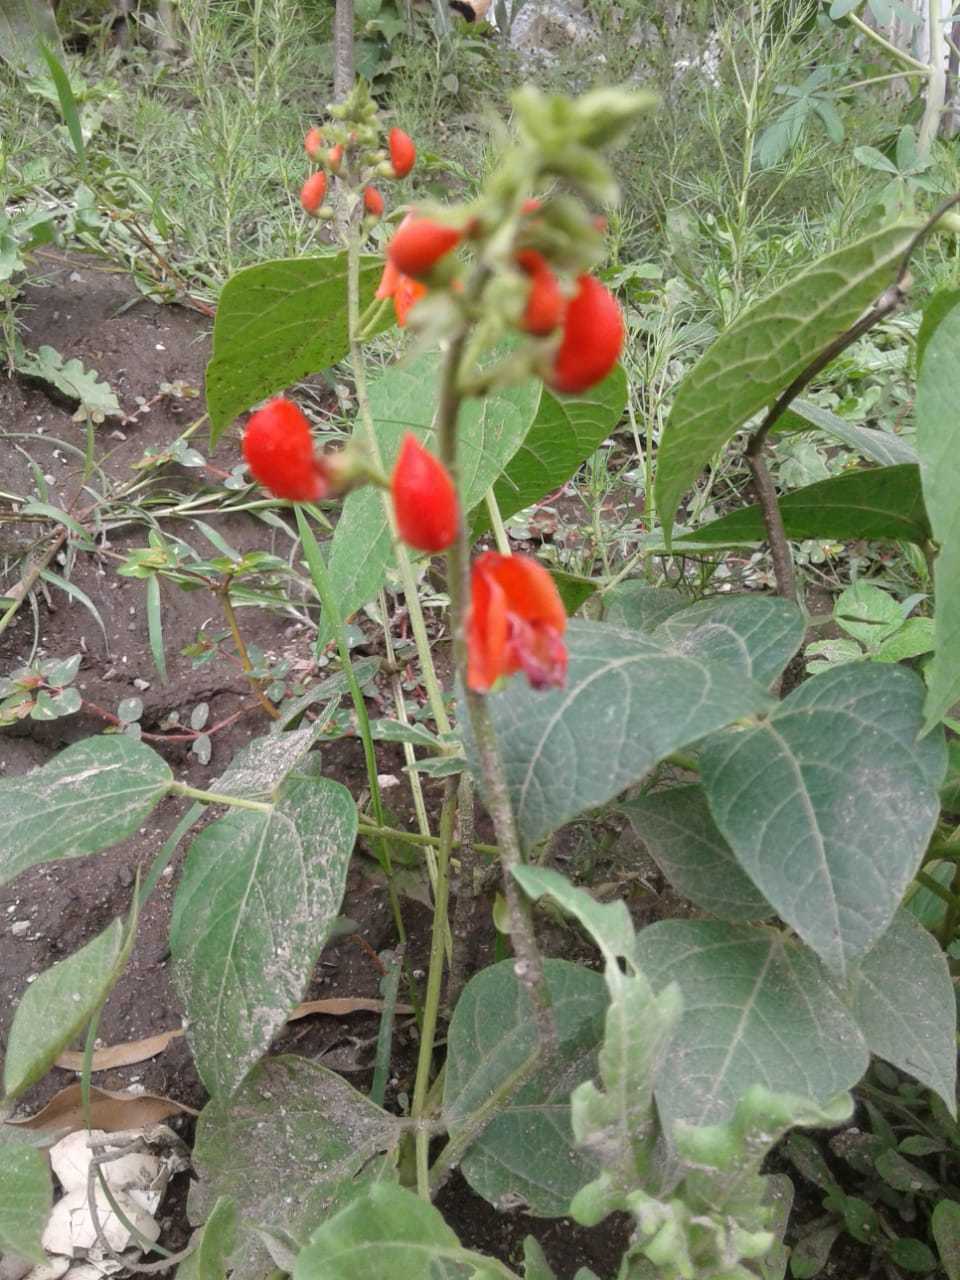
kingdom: Plantae
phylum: Tracheophyta
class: Magnoliopsida
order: Fabales
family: Fabaceae
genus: Phaseolus
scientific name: Phaseolus coccineus
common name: Runner bean
